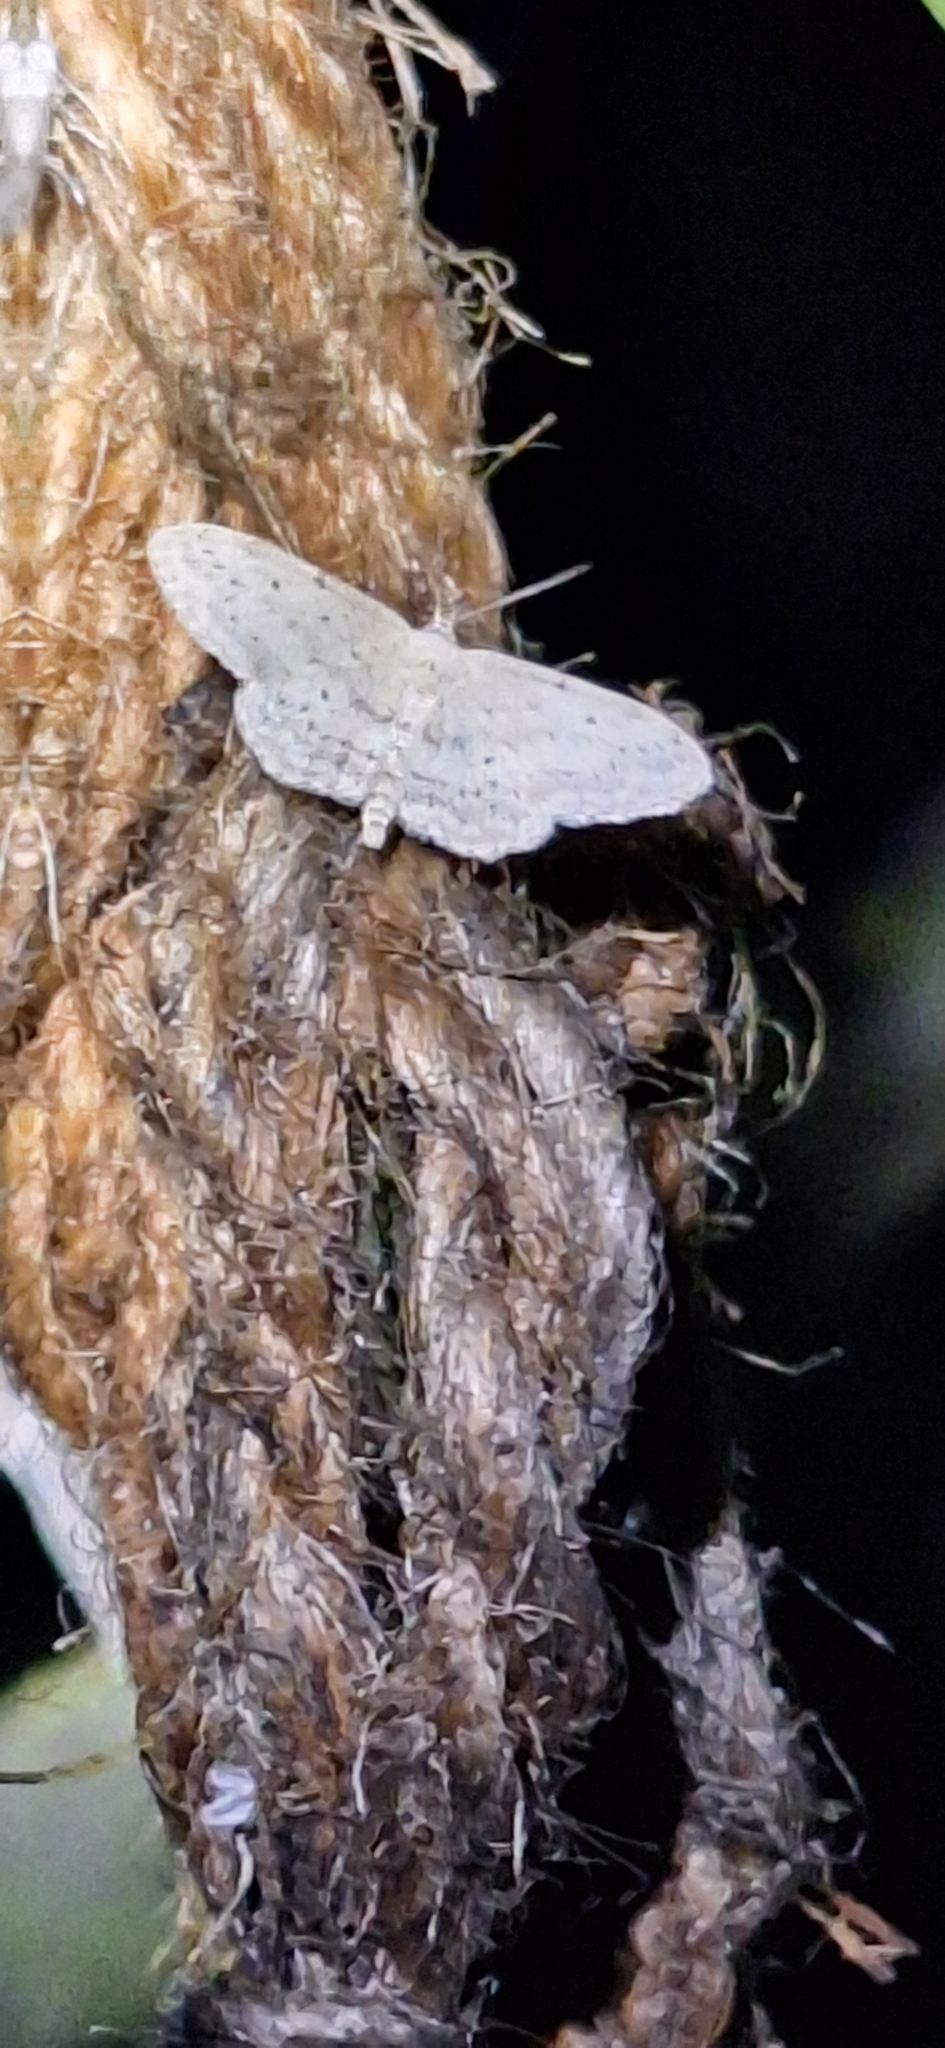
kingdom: Animalia
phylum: Arthropoda
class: Insecta
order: Lepidoptera
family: Geometridae
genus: Idaea
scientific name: Idaea seriata
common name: Small dusty wave
